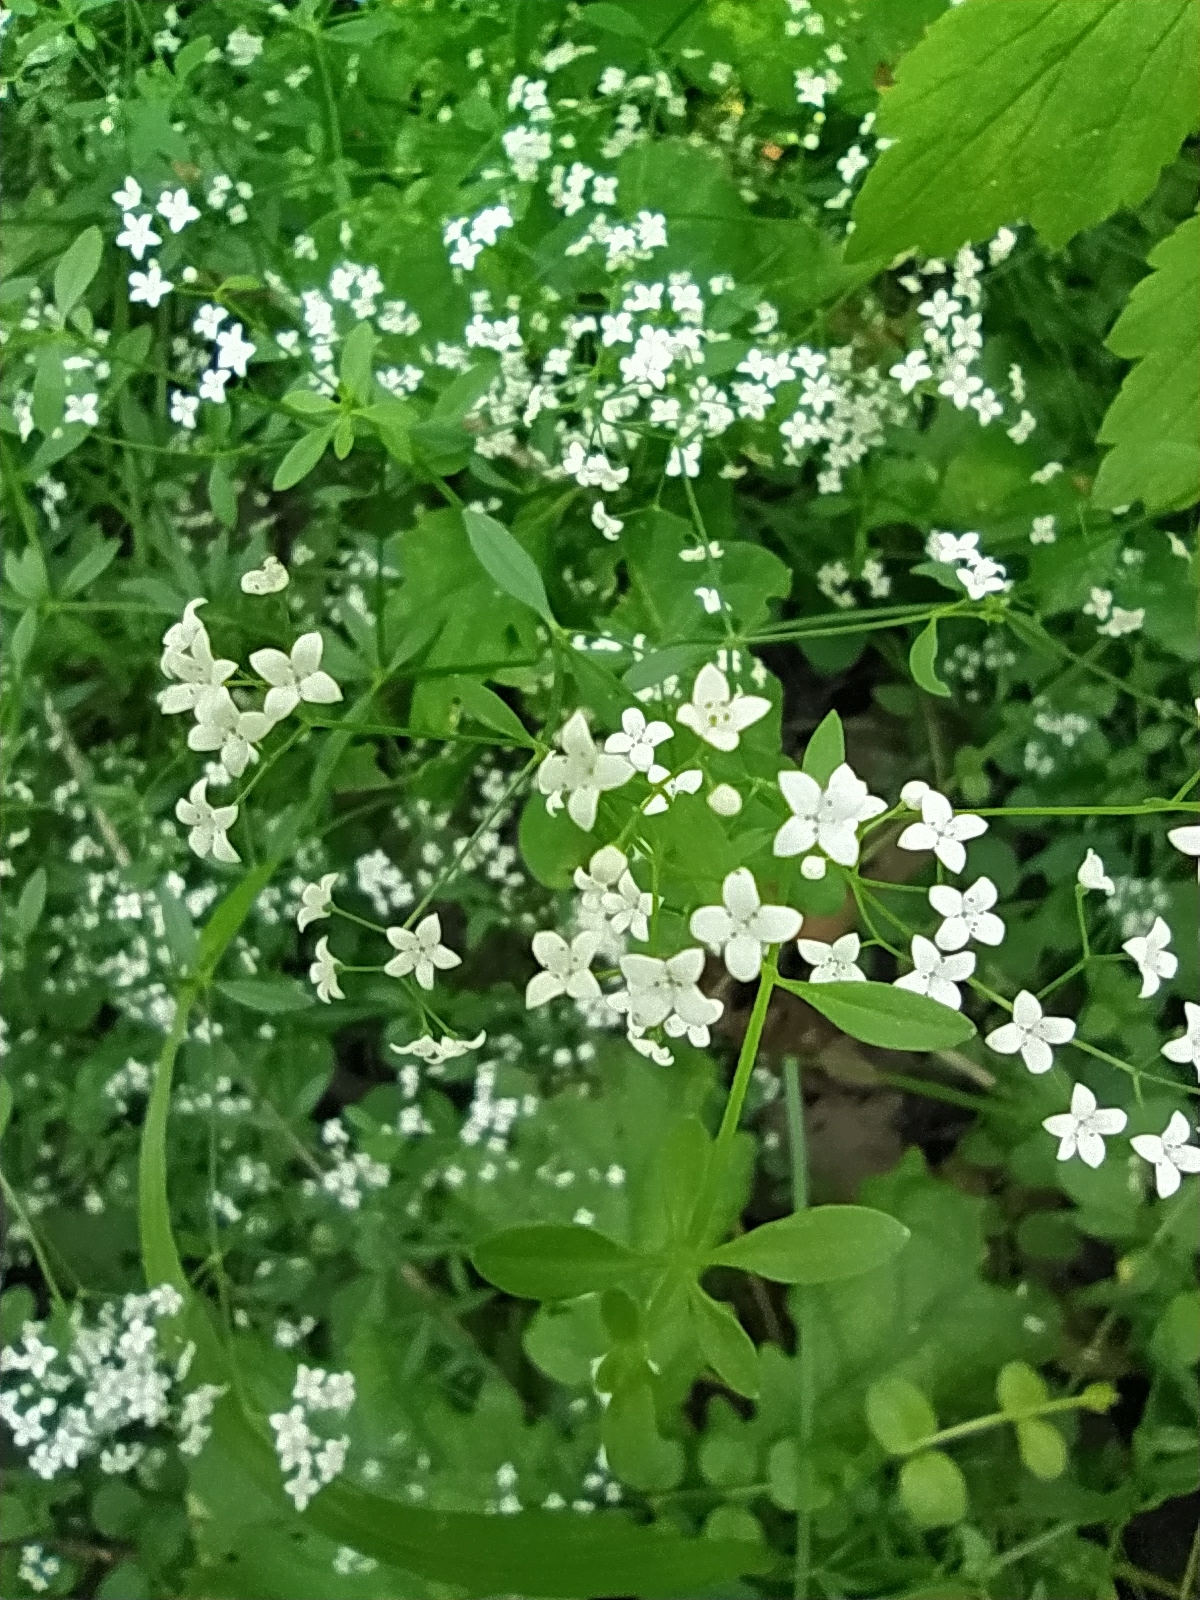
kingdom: Plantae
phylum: Tracheophyta
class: Magnoliopsida
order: Gentianales
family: Rubiaceae
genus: Galium
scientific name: Galium palustre
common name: Common marsh-bedstraw
